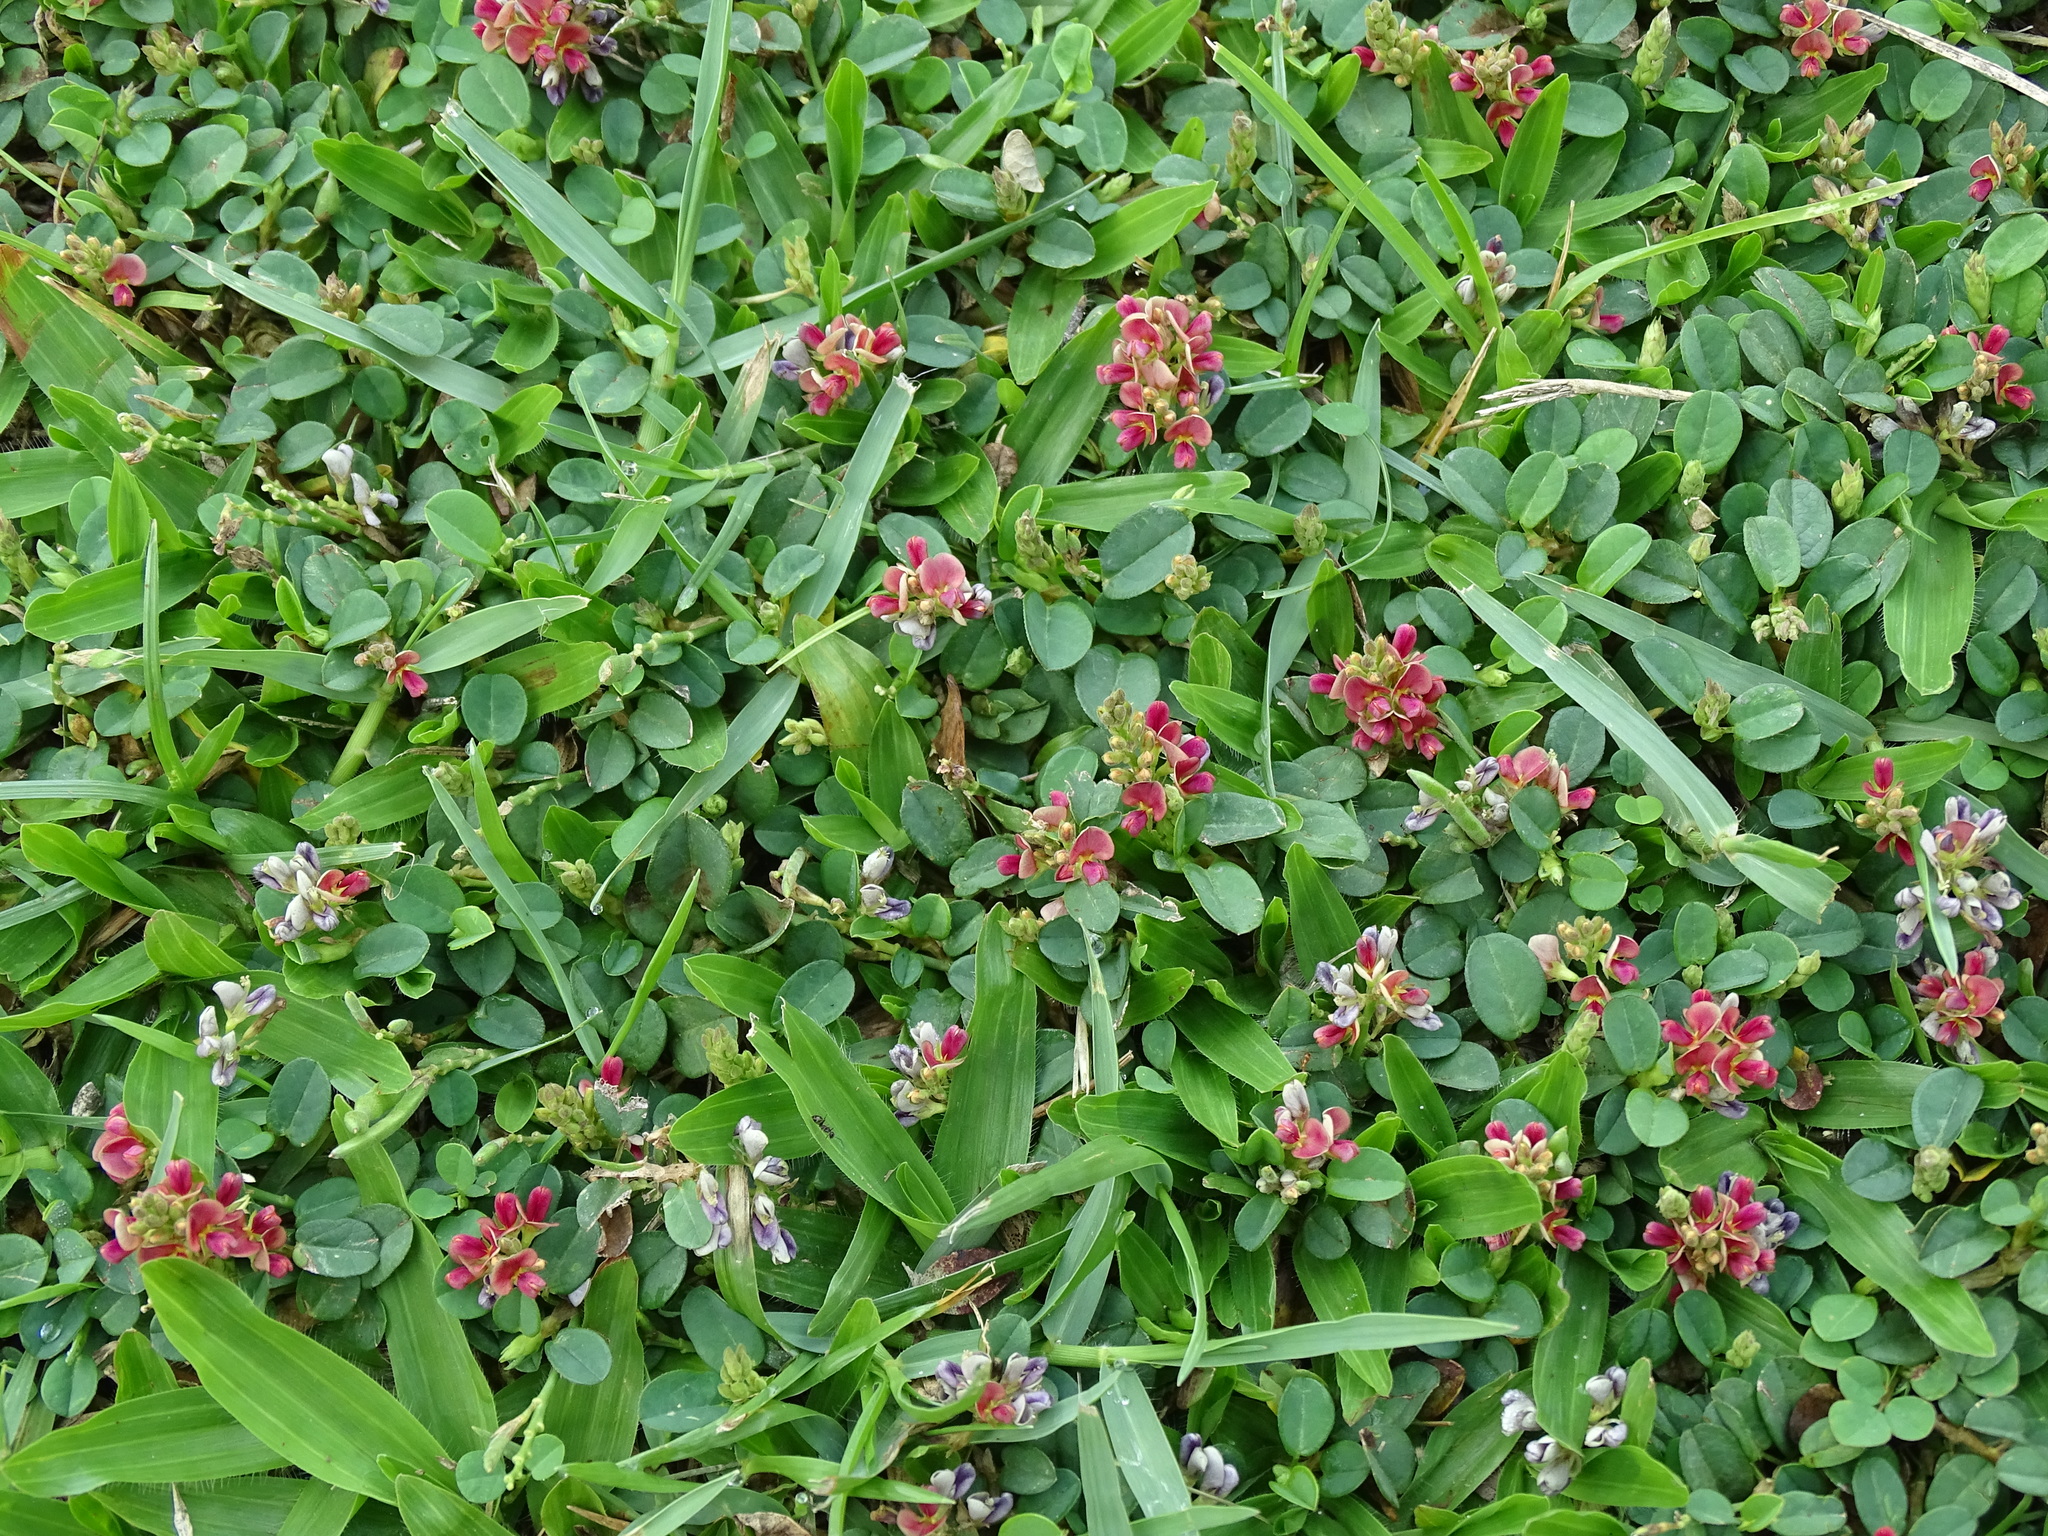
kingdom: Plantae
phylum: Tracheophyta
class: Magnoliopsida
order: Fabales
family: Fabaceae
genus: Alysicarpus
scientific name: Alysicarpus vaginalis
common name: White moneywort
